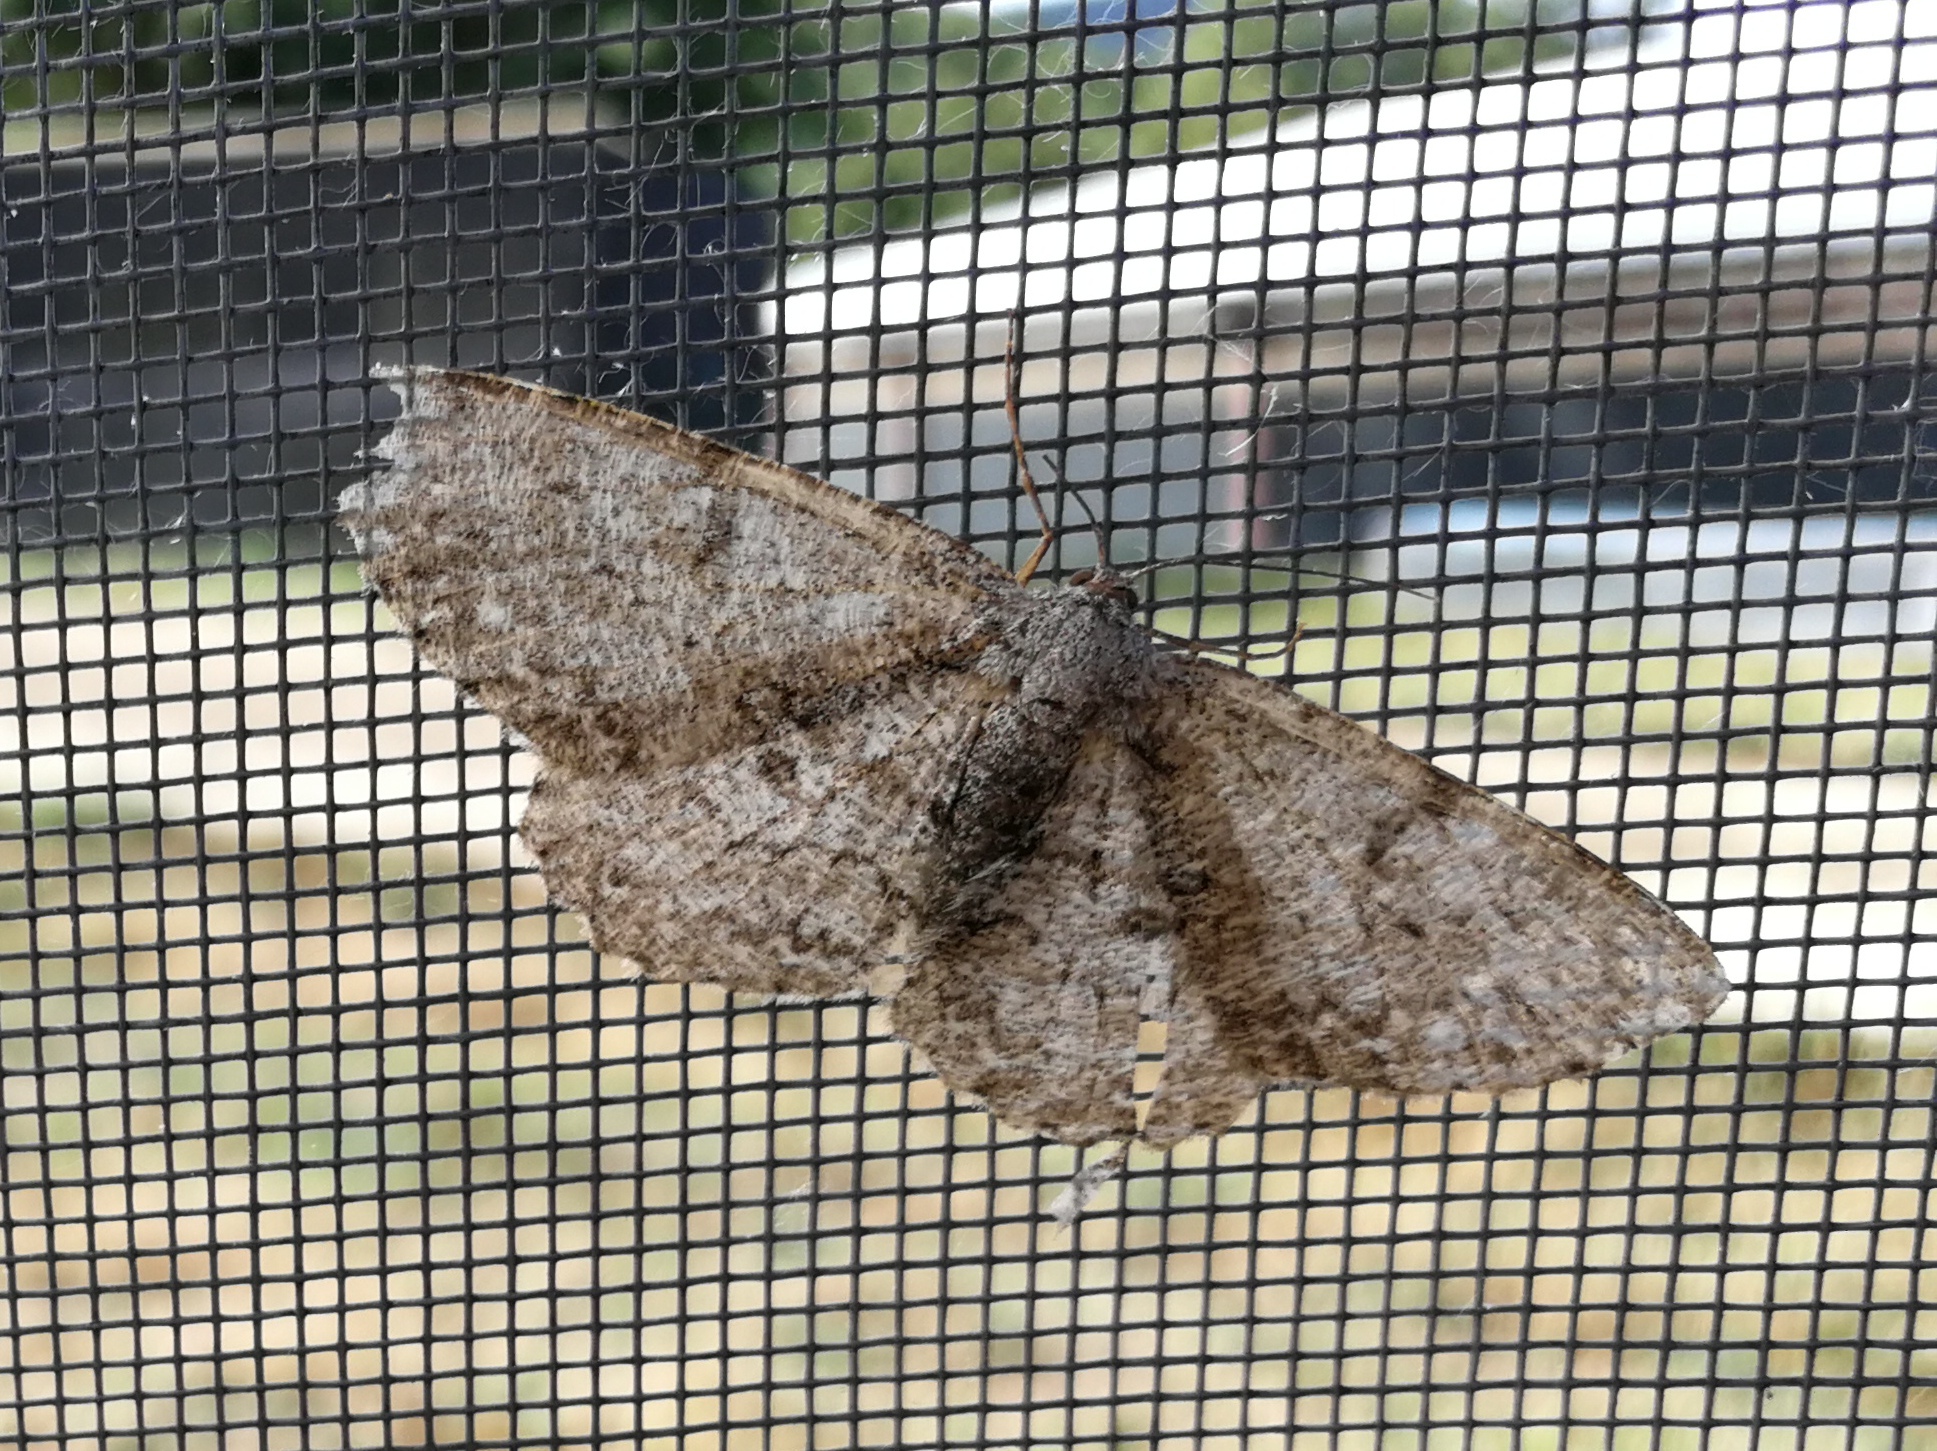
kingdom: Animalia
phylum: Arthropoda
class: Insecta
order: Lepidoptera
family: Geometridae
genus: Hypomecis
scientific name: Hypomecis punctinalis
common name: Pale oak beauty
